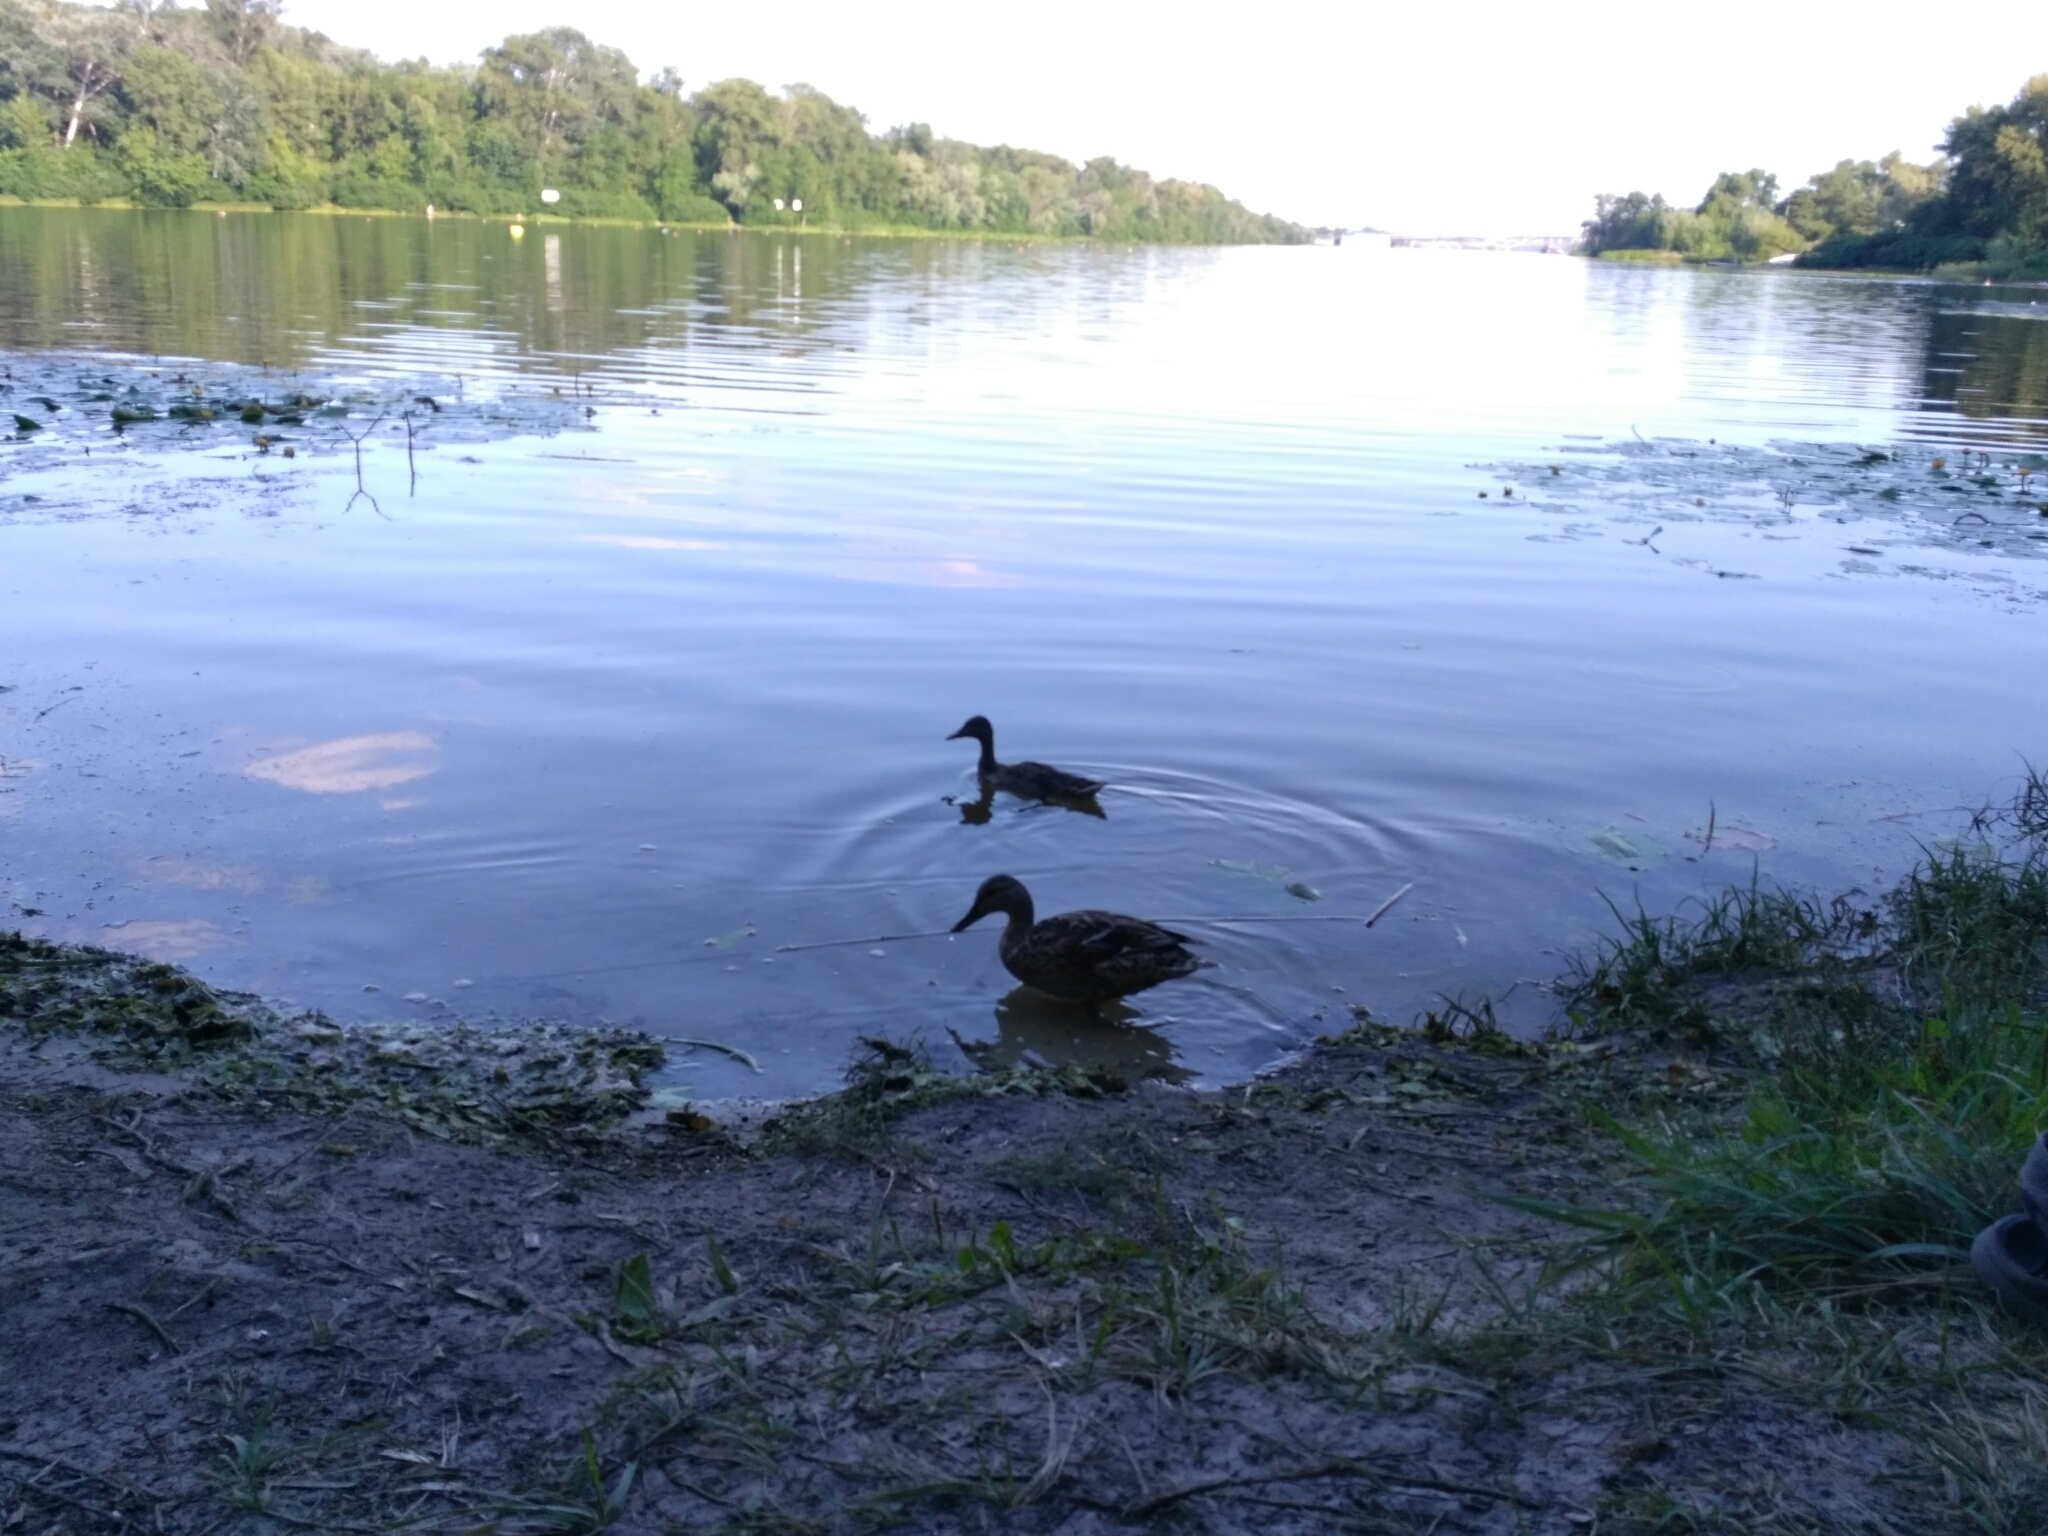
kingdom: Animalia
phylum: Chordata
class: Aves
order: Anseriformes
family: Anatidae
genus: Anas
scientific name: Anas platyrhynchos
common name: Mallard
